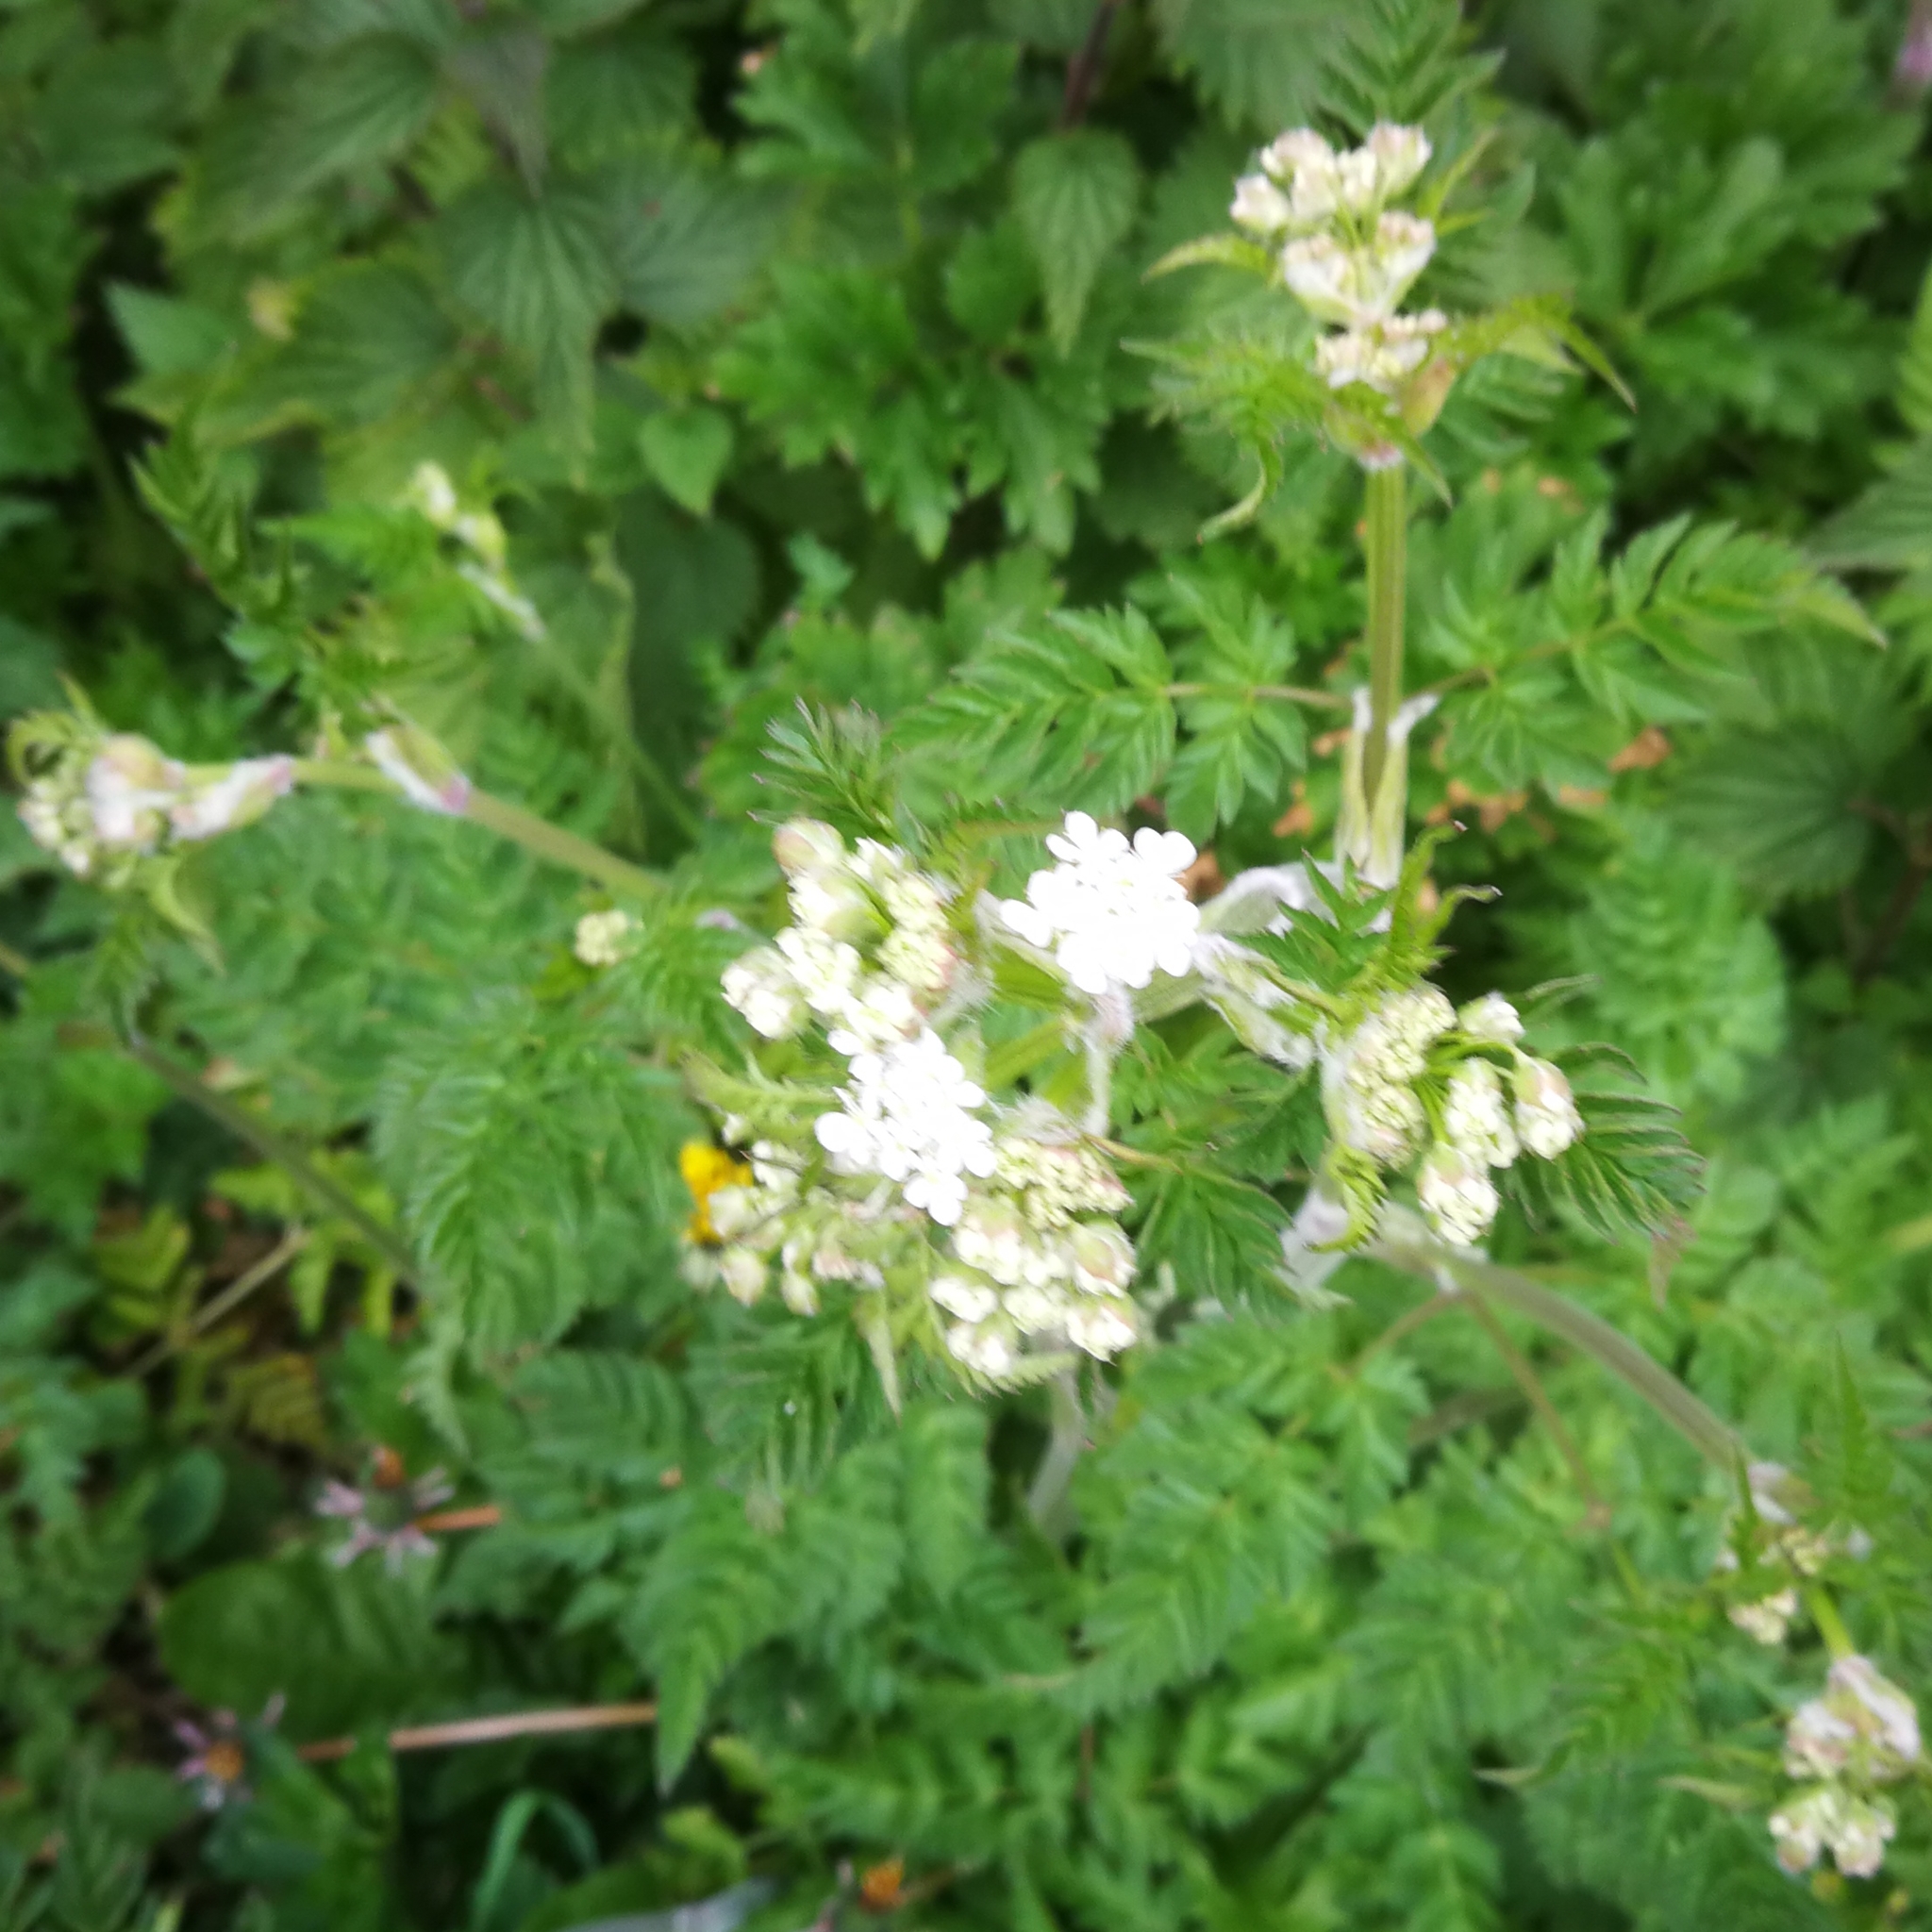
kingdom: Plantae
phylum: Tracheophyta
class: Magnoliopsida
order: Apiales
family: Apiaceae
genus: Anthriscus
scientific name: Anthriscus sylvestris
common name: Cow parsley
